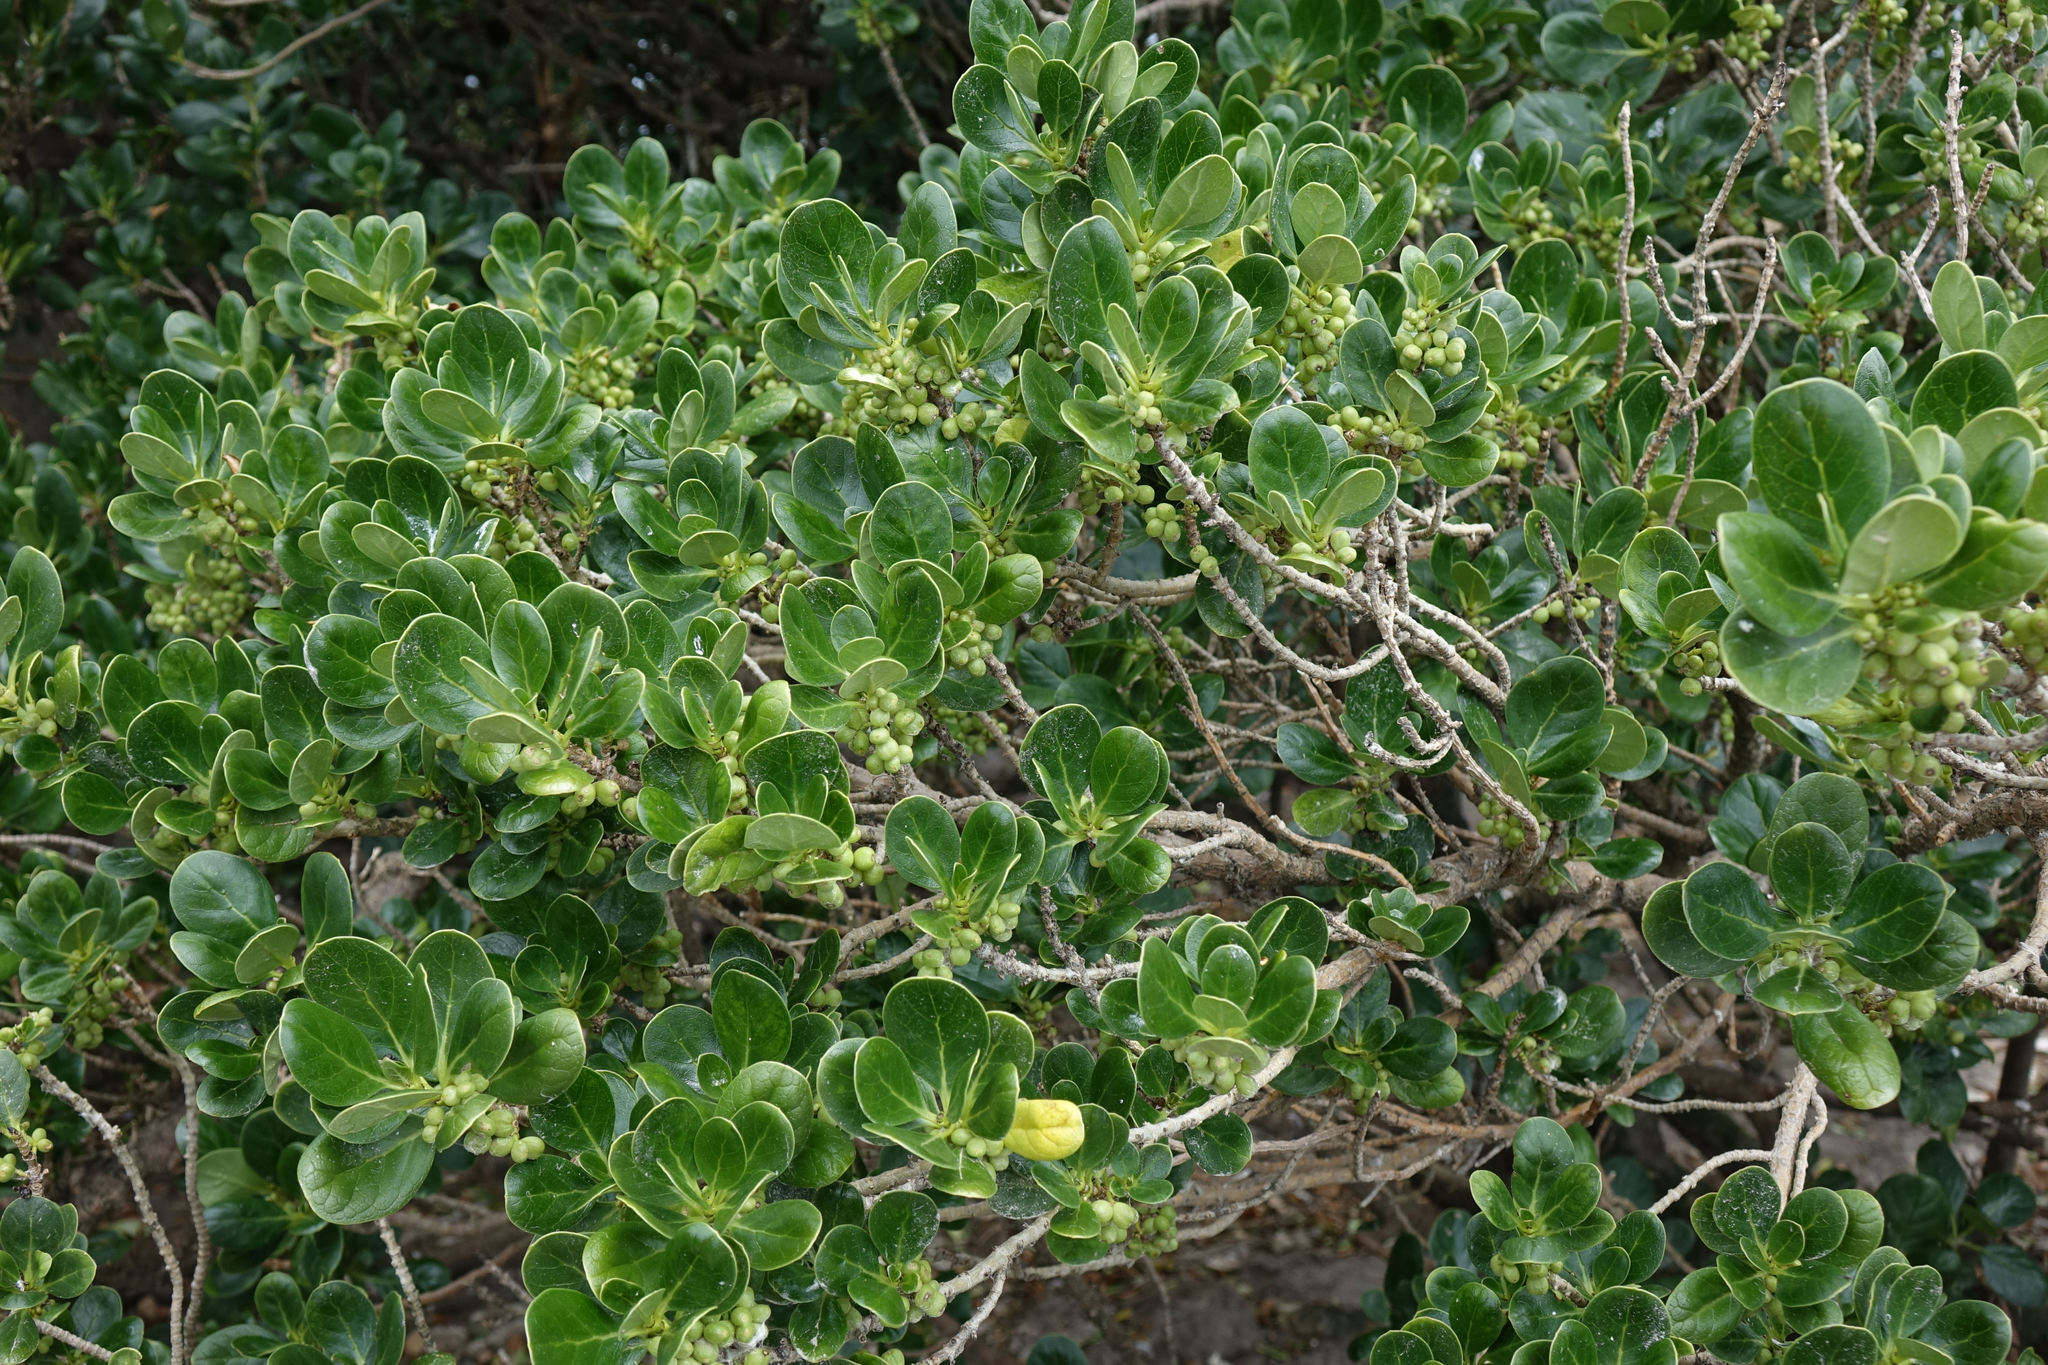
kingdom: Plantae
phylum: Tracheophyta
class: Magnoliopsida
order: Gentianales
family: Rubiaceae
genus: Coprosma
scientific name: Coprosma repens
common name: Tree bedstraw
